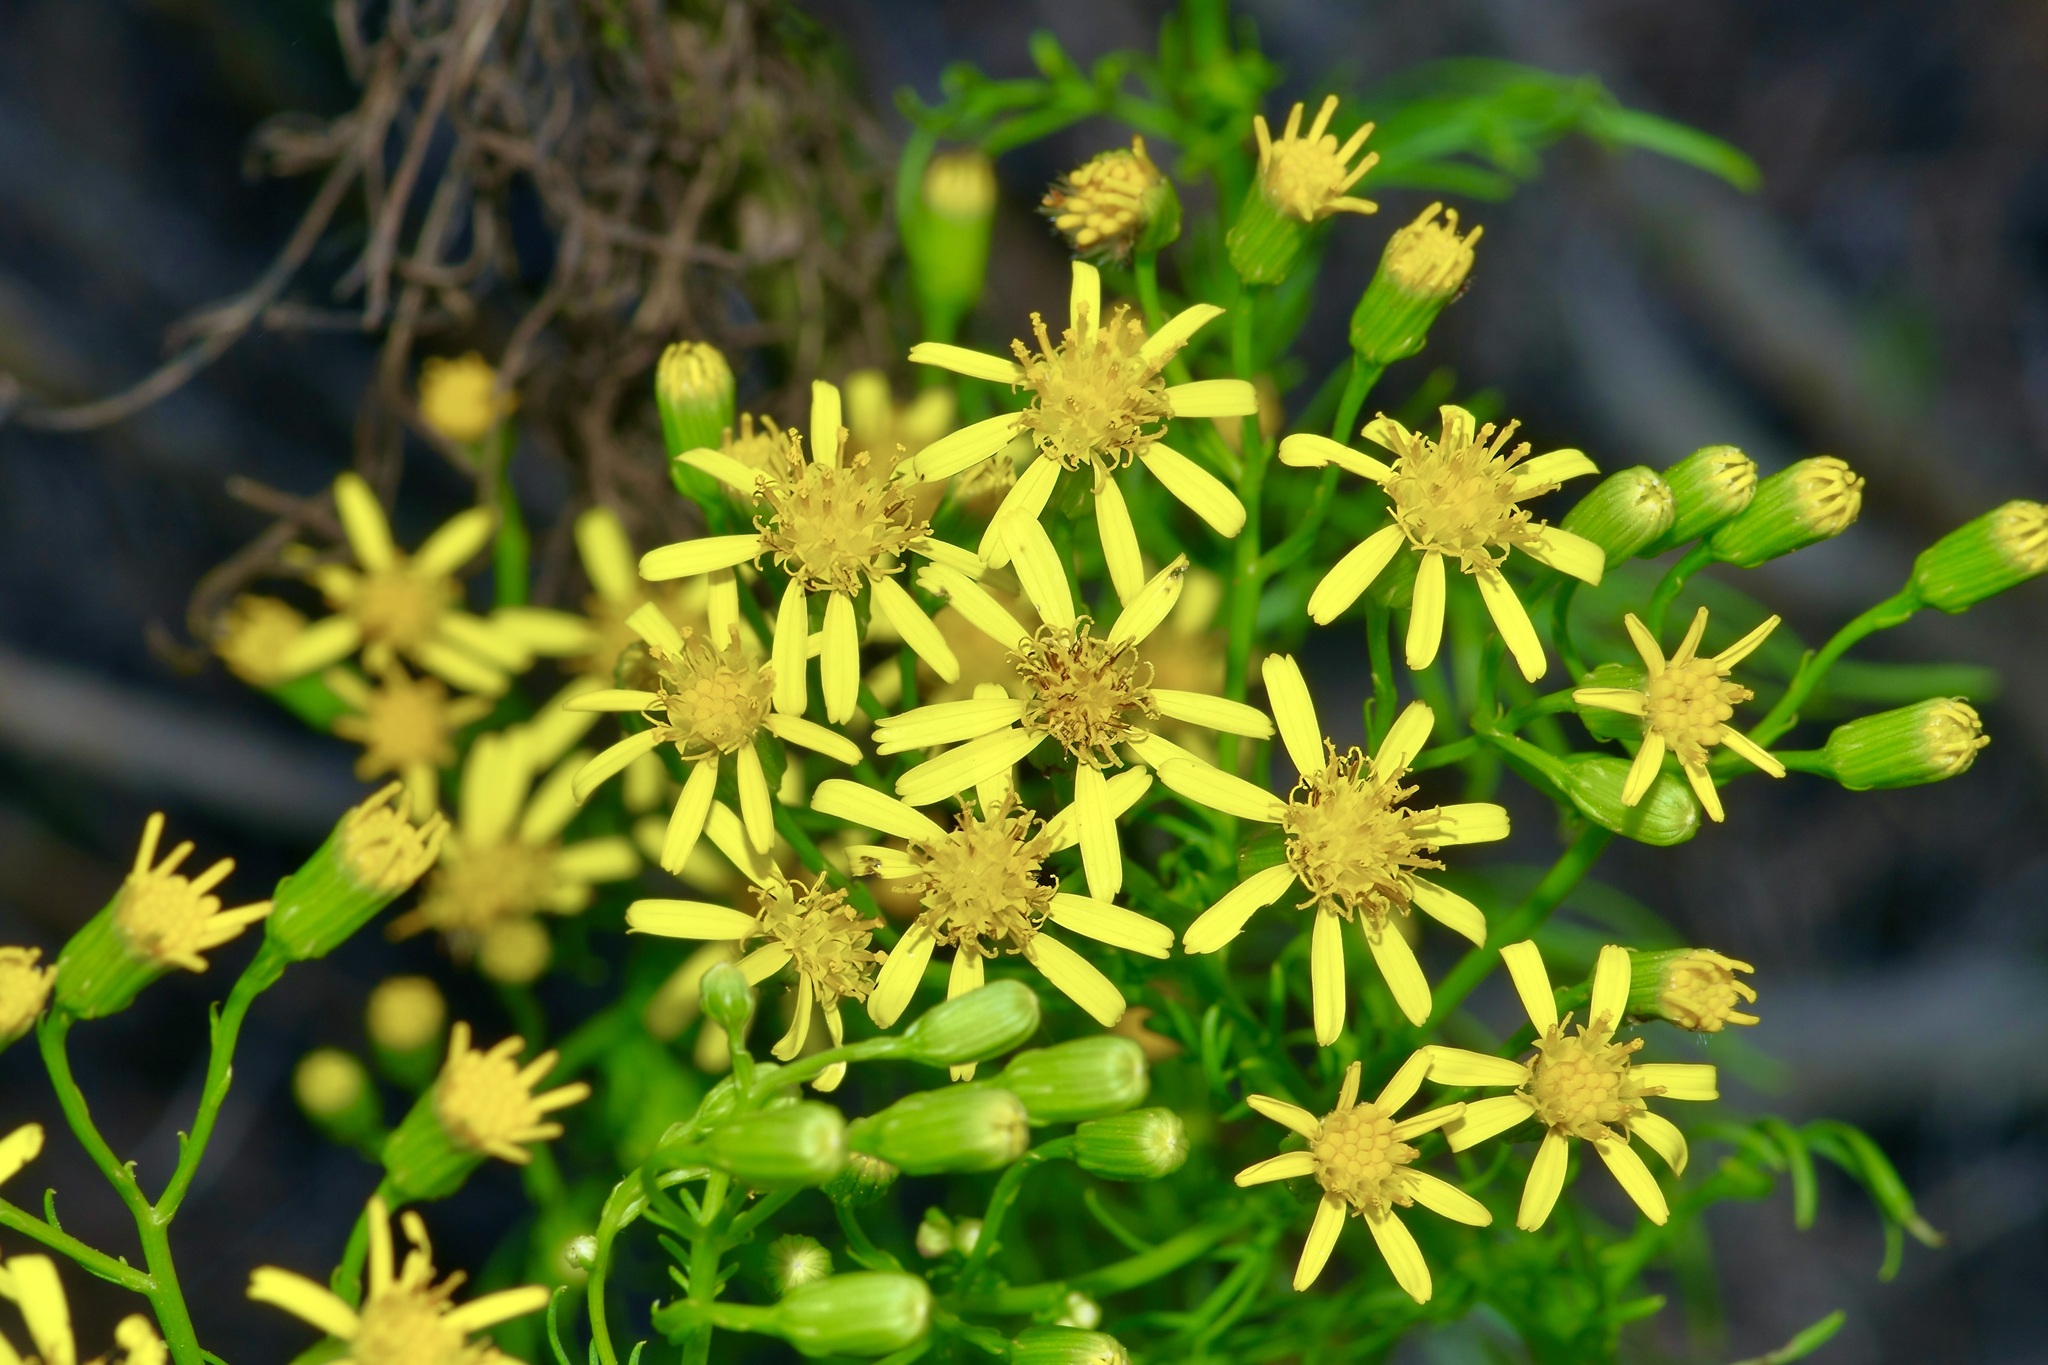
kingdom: Plantae
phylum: Tracheophyta
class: Magnoliopsida
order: Asterales
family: Asteraceae
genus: Senecio
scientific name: Senecio riddellii
